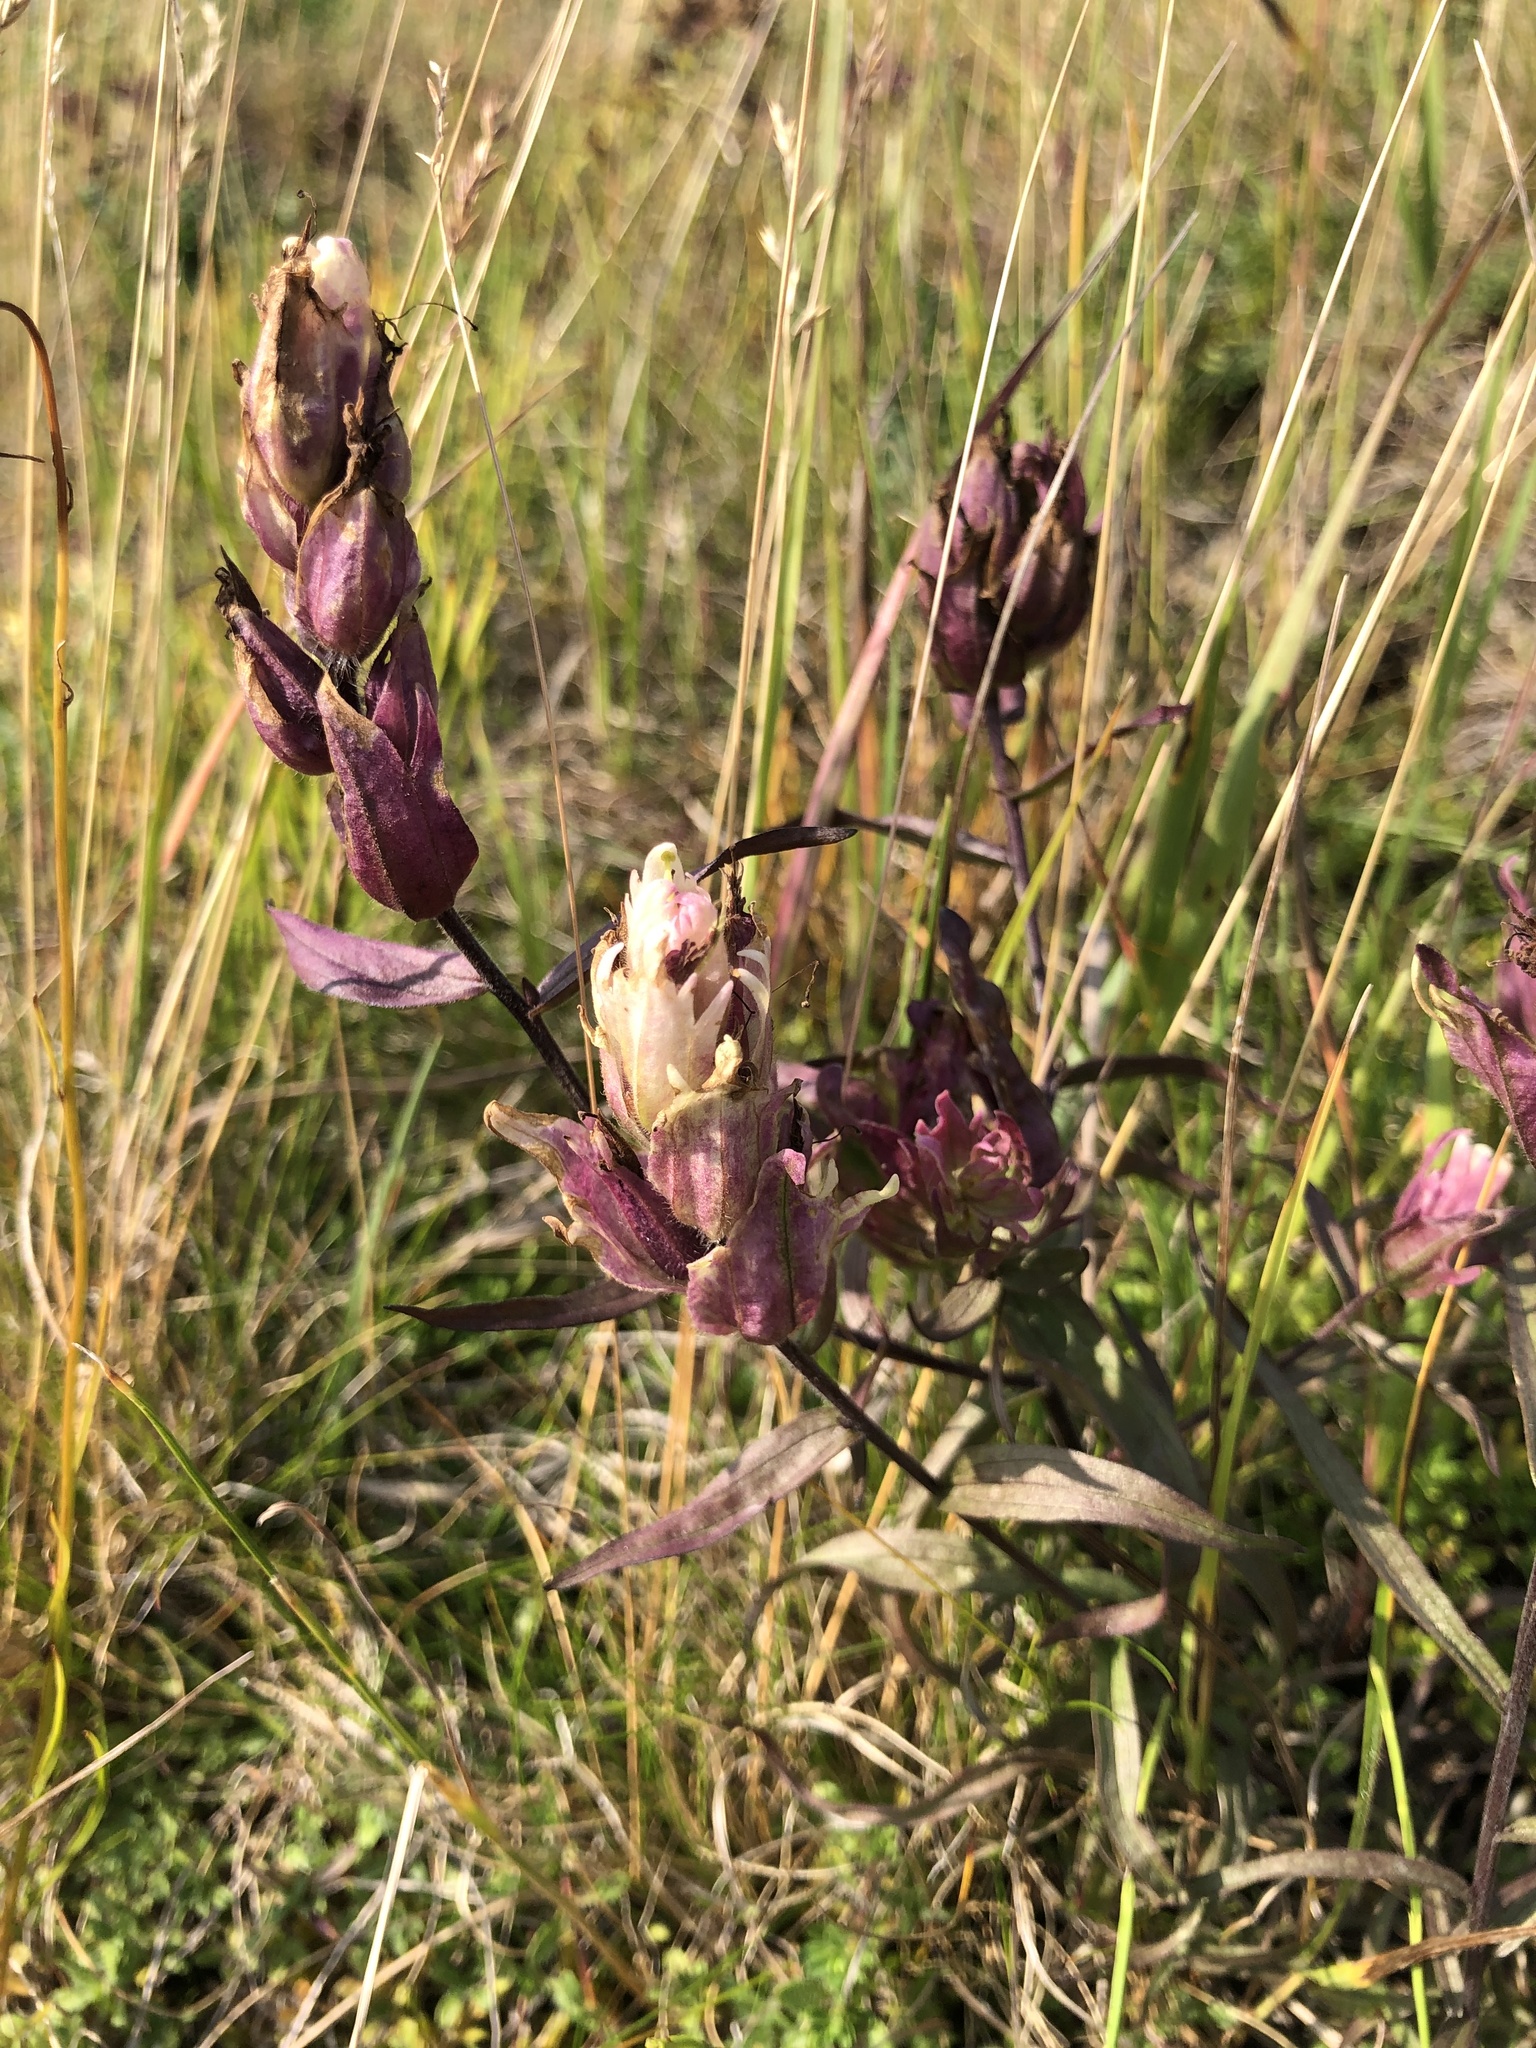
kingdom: Plantae
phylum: Tracheophyta
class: Magnoliopsida
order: Lamiales
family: Orobanchaceae
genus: Castilleja
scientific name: Castilleja arctica
